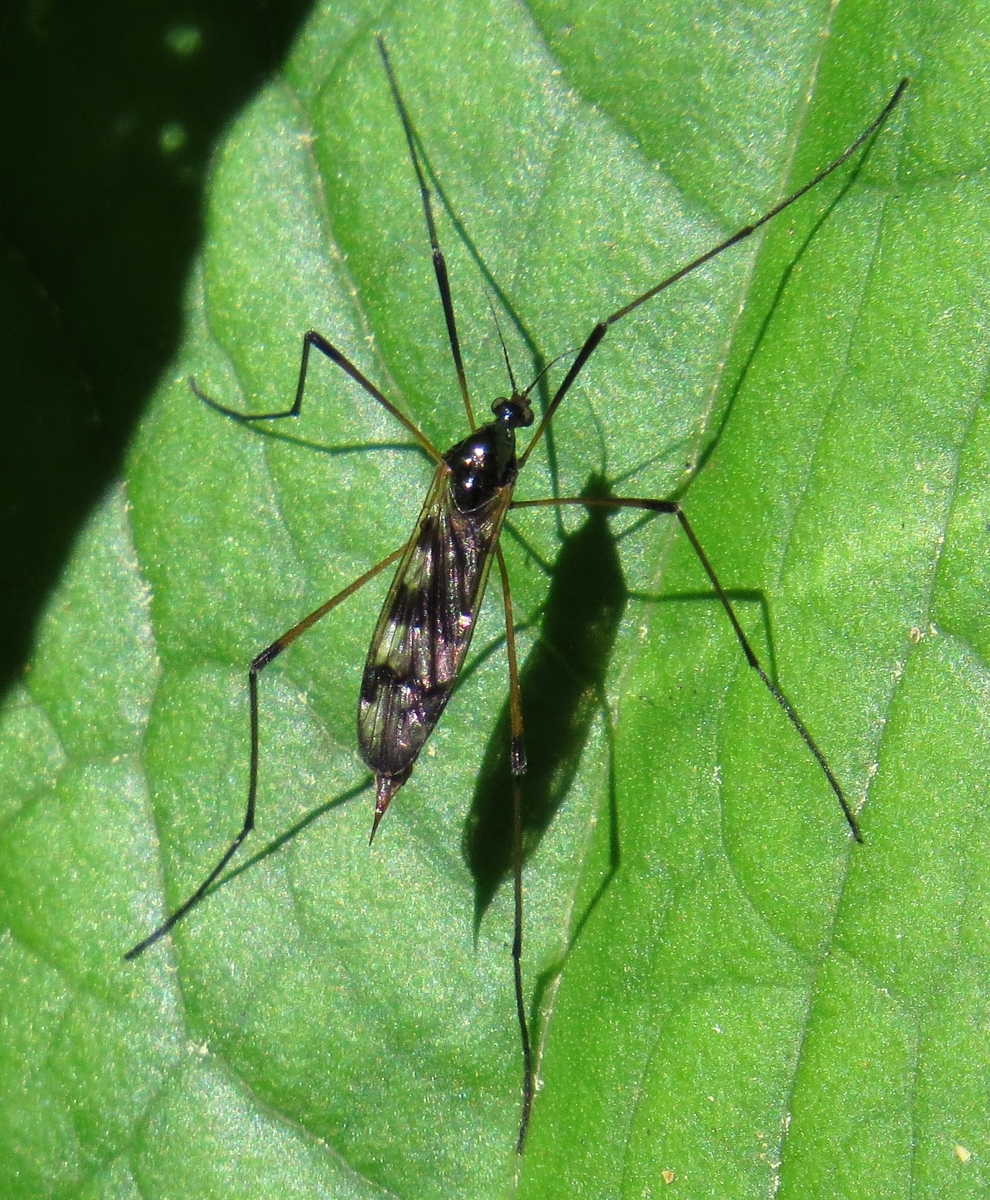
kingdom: Animalia
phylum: Arthropoda
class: Insecta
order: Diptera
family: Limoniidae
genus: Limnophila
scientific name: Limnophila macrocera
